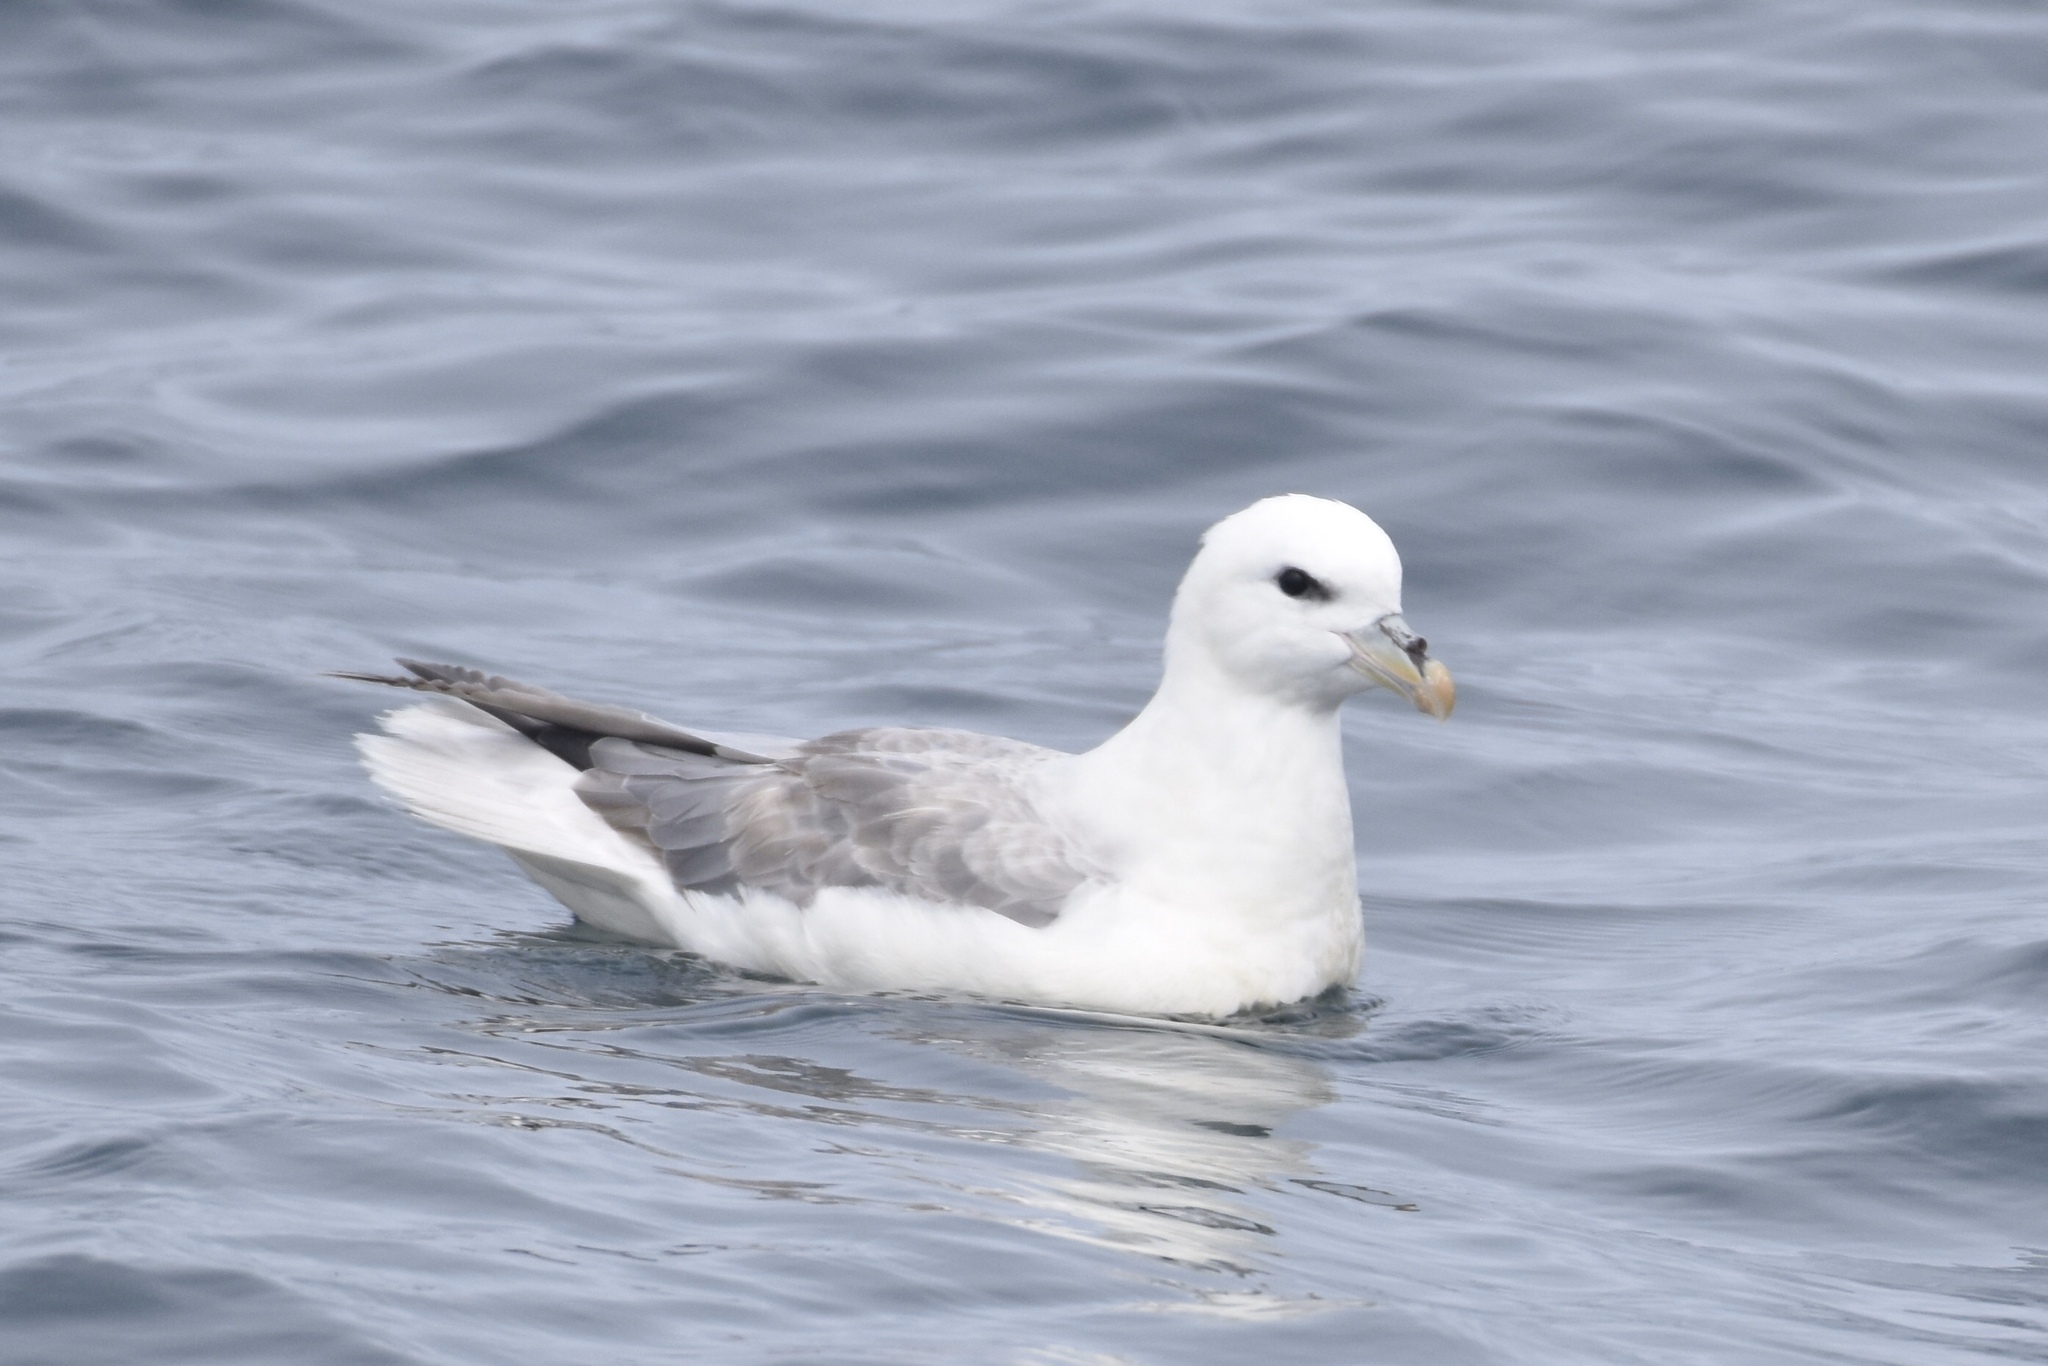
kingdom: Animalia
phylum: Chordata
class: Aves
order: Procellariiformes
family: Procellariidae
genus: Fulmarus
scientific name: Fulmarus glacialis
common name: Northern fulmar
